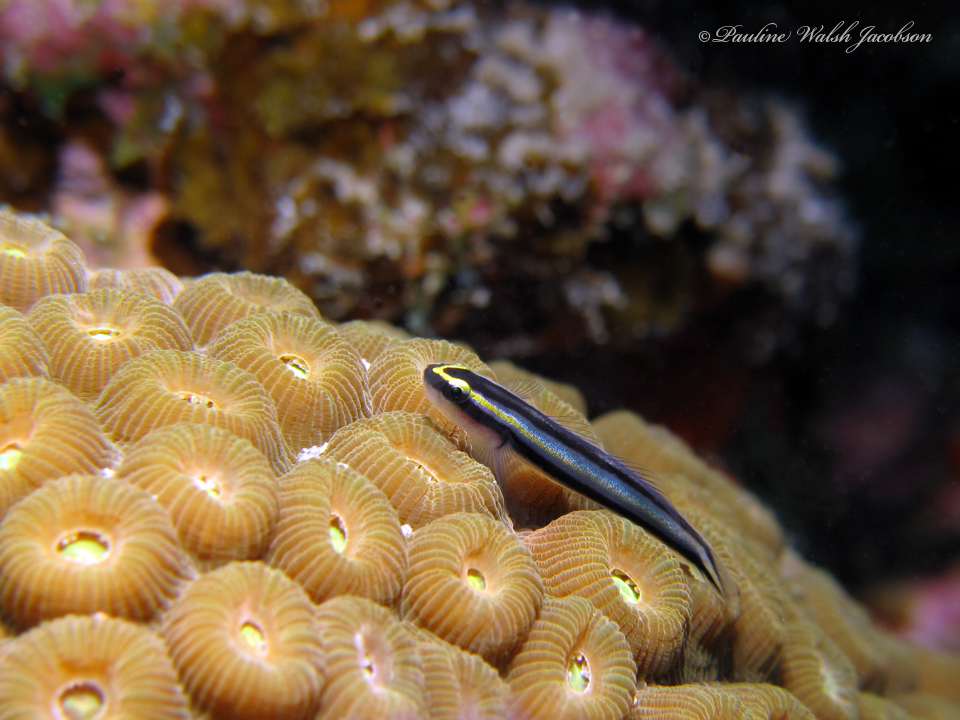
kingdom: Animalia
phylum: Chordata
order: Perciformes
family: Gobiidae
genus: Elacatinus
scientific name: Elacatinus evelynae
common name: Sharknose goby
